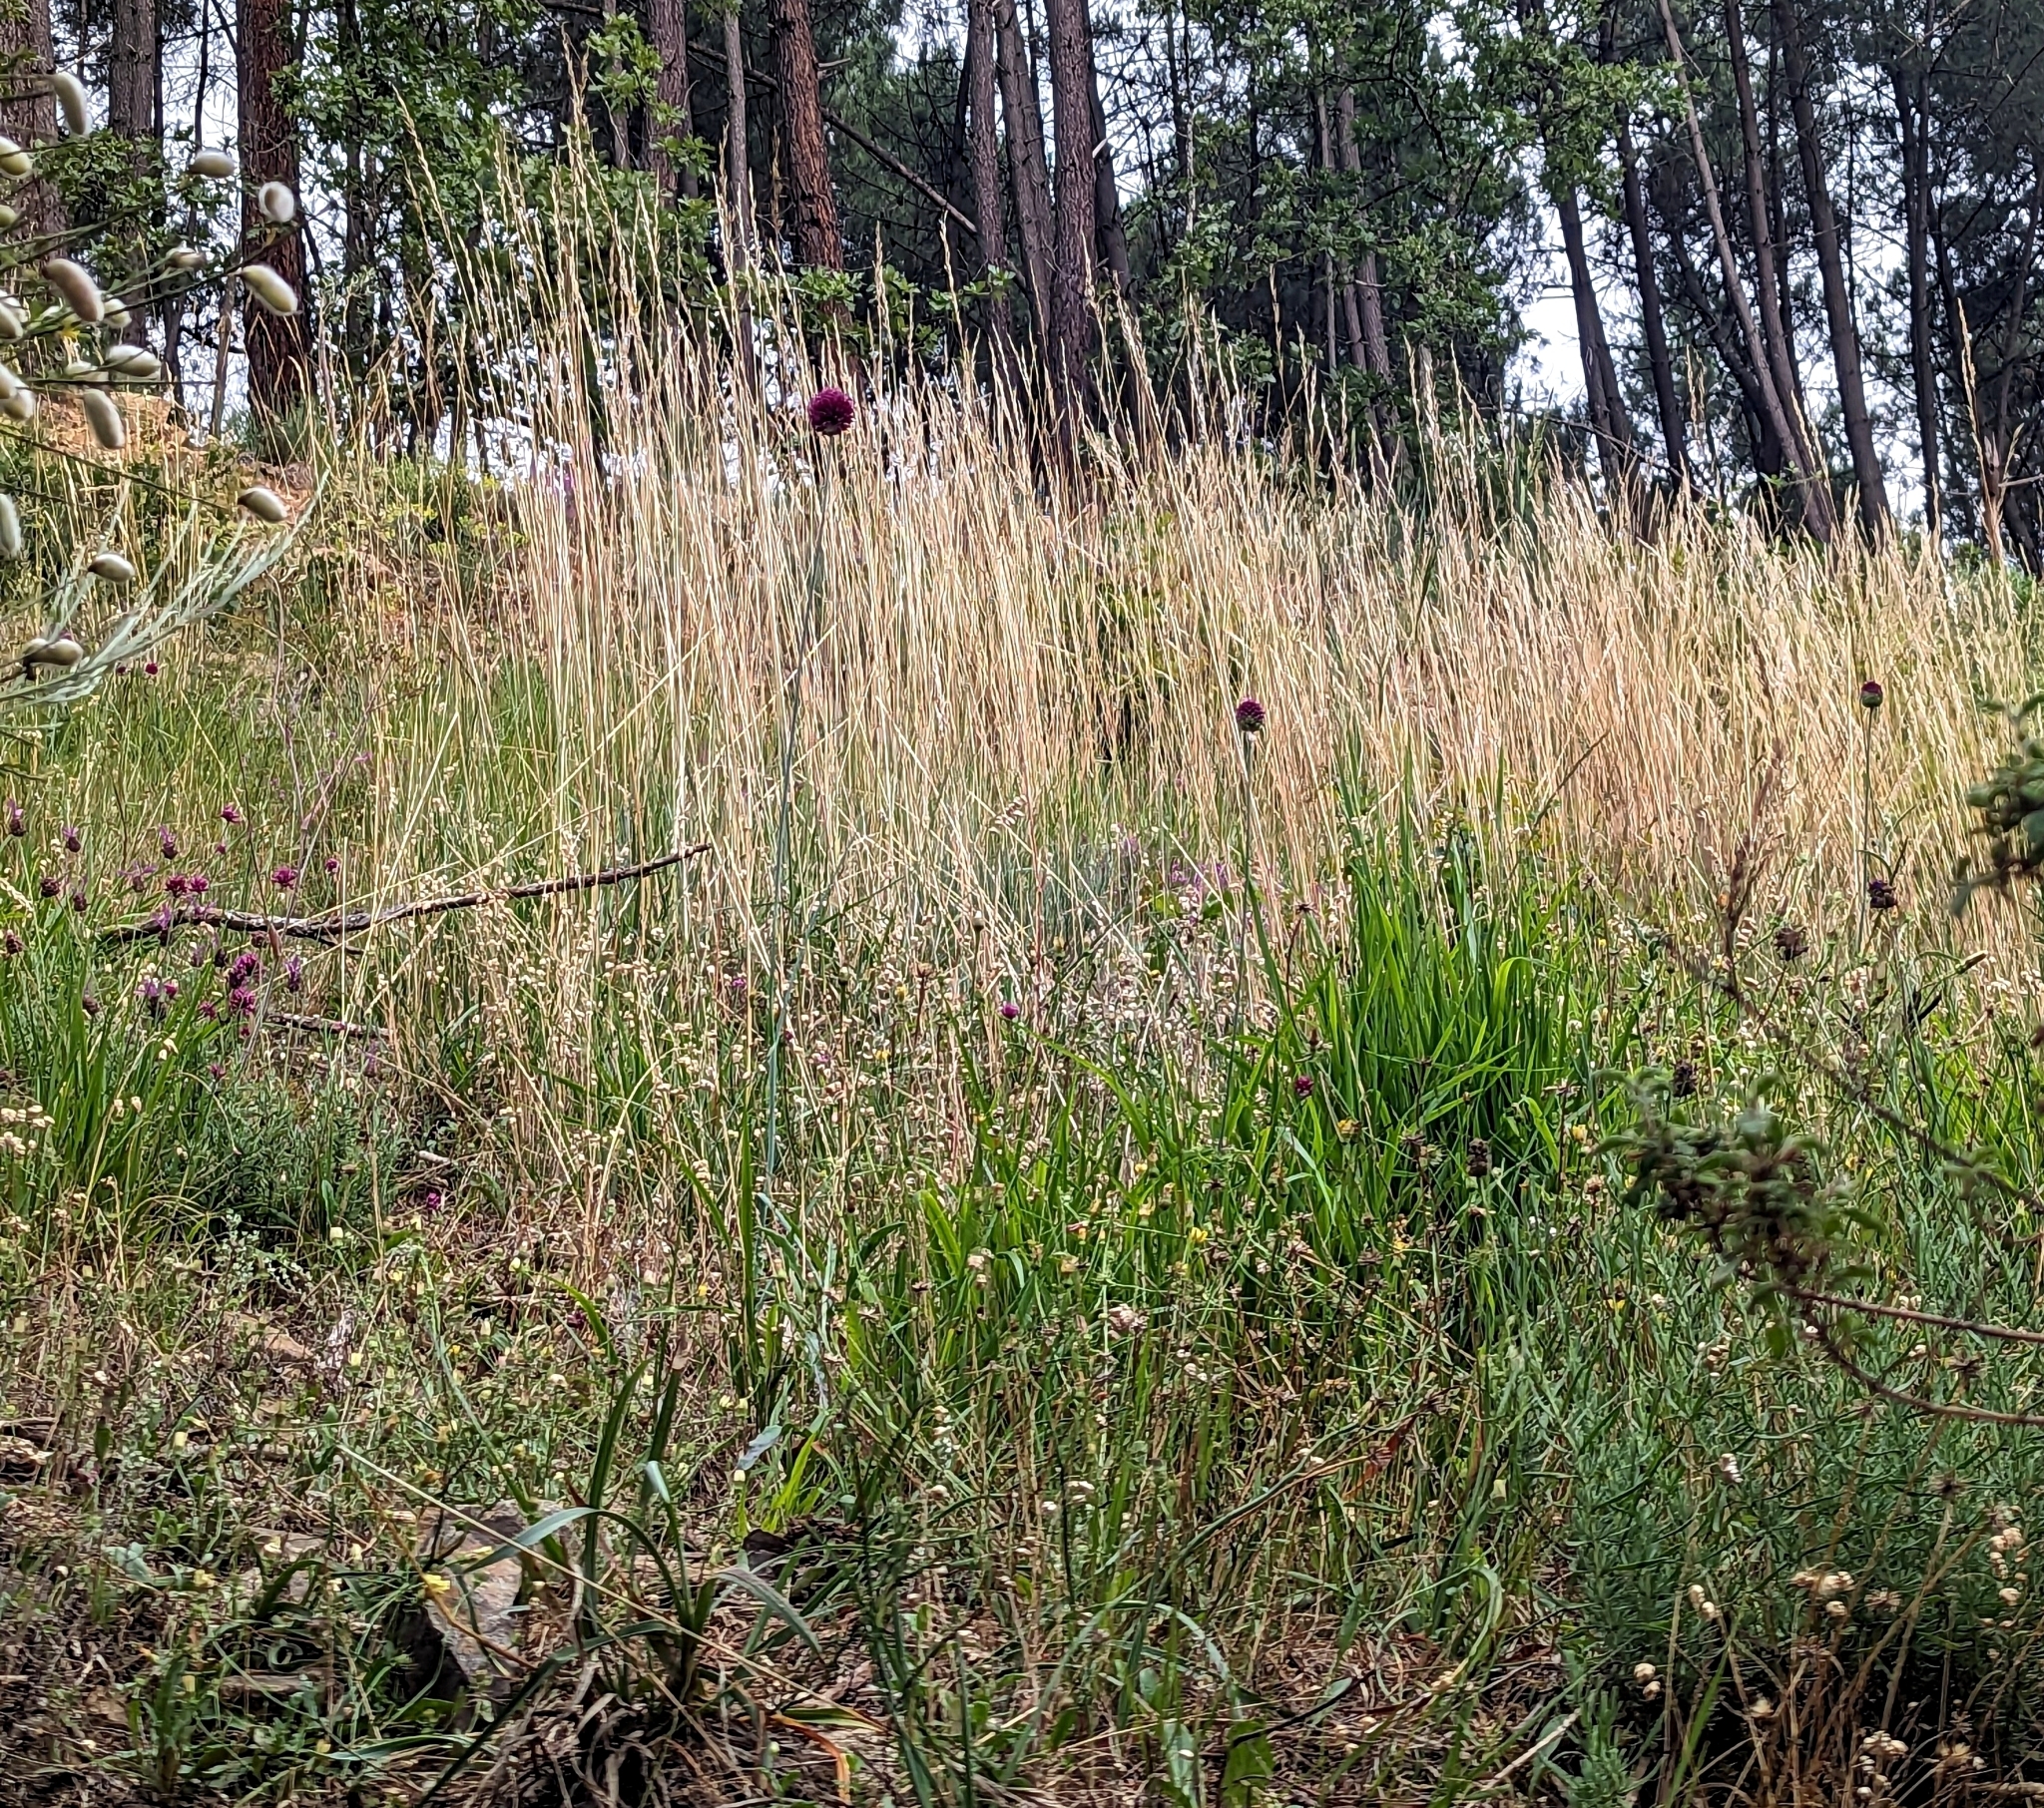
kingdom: Plantae
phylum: Tracheophyta
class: Liliopsida
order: Asparagales
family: Amaryllidaceae
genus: Allium
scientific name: Allium sphaerocephalon
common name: Round-headed leek
